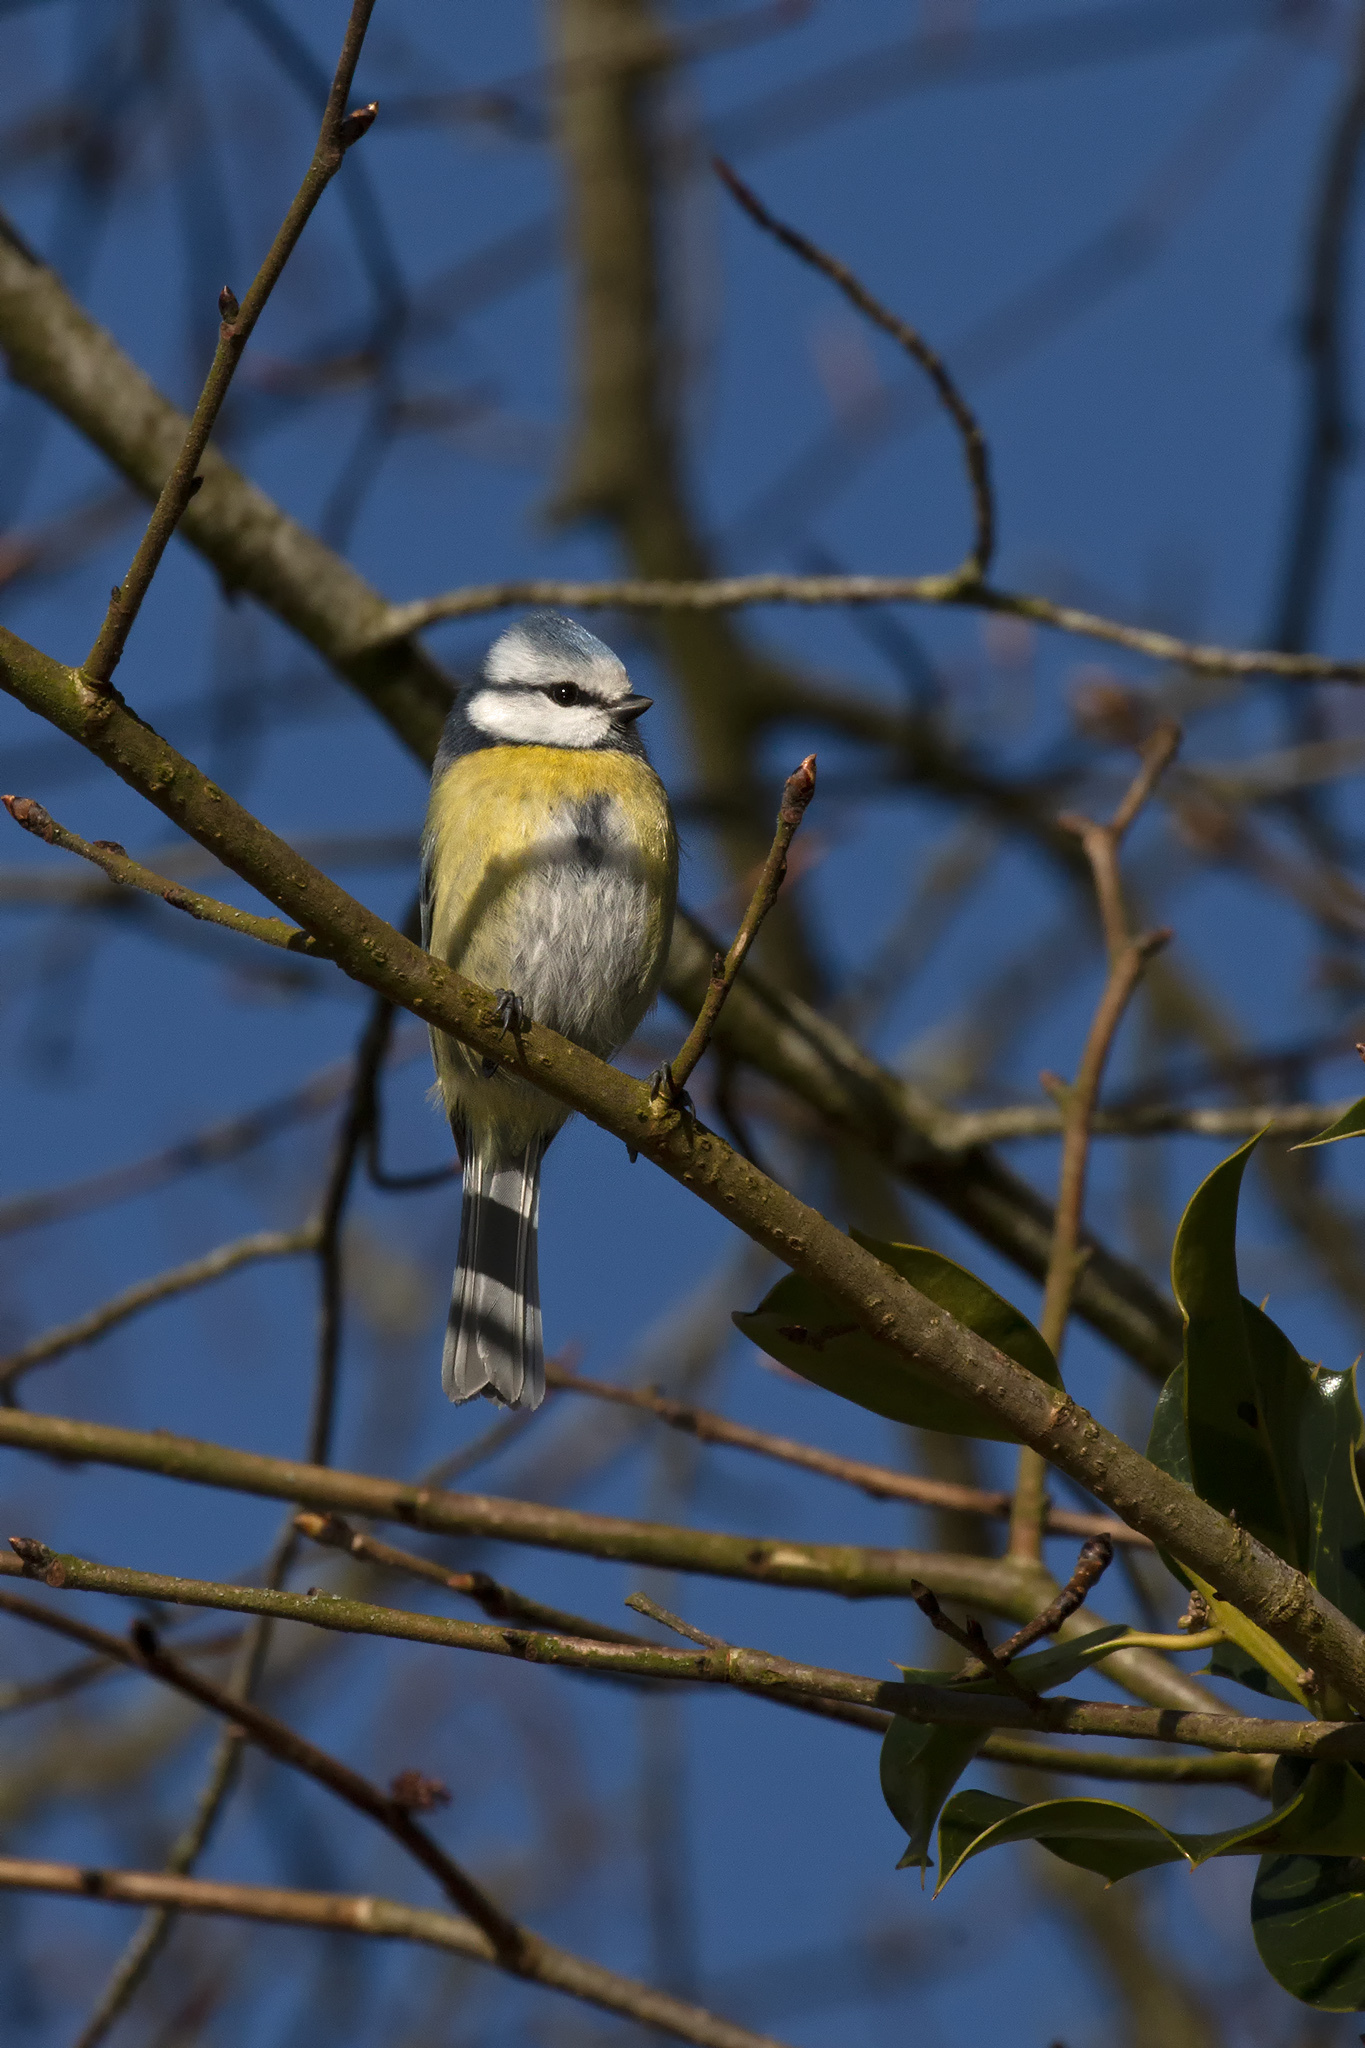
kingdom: Animalia
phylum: Chordata
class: Aves
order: Passeriformes
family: Paridae
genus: Cyanistes
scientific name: Cyanistes caeruleus
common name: Eurasian blue tit
